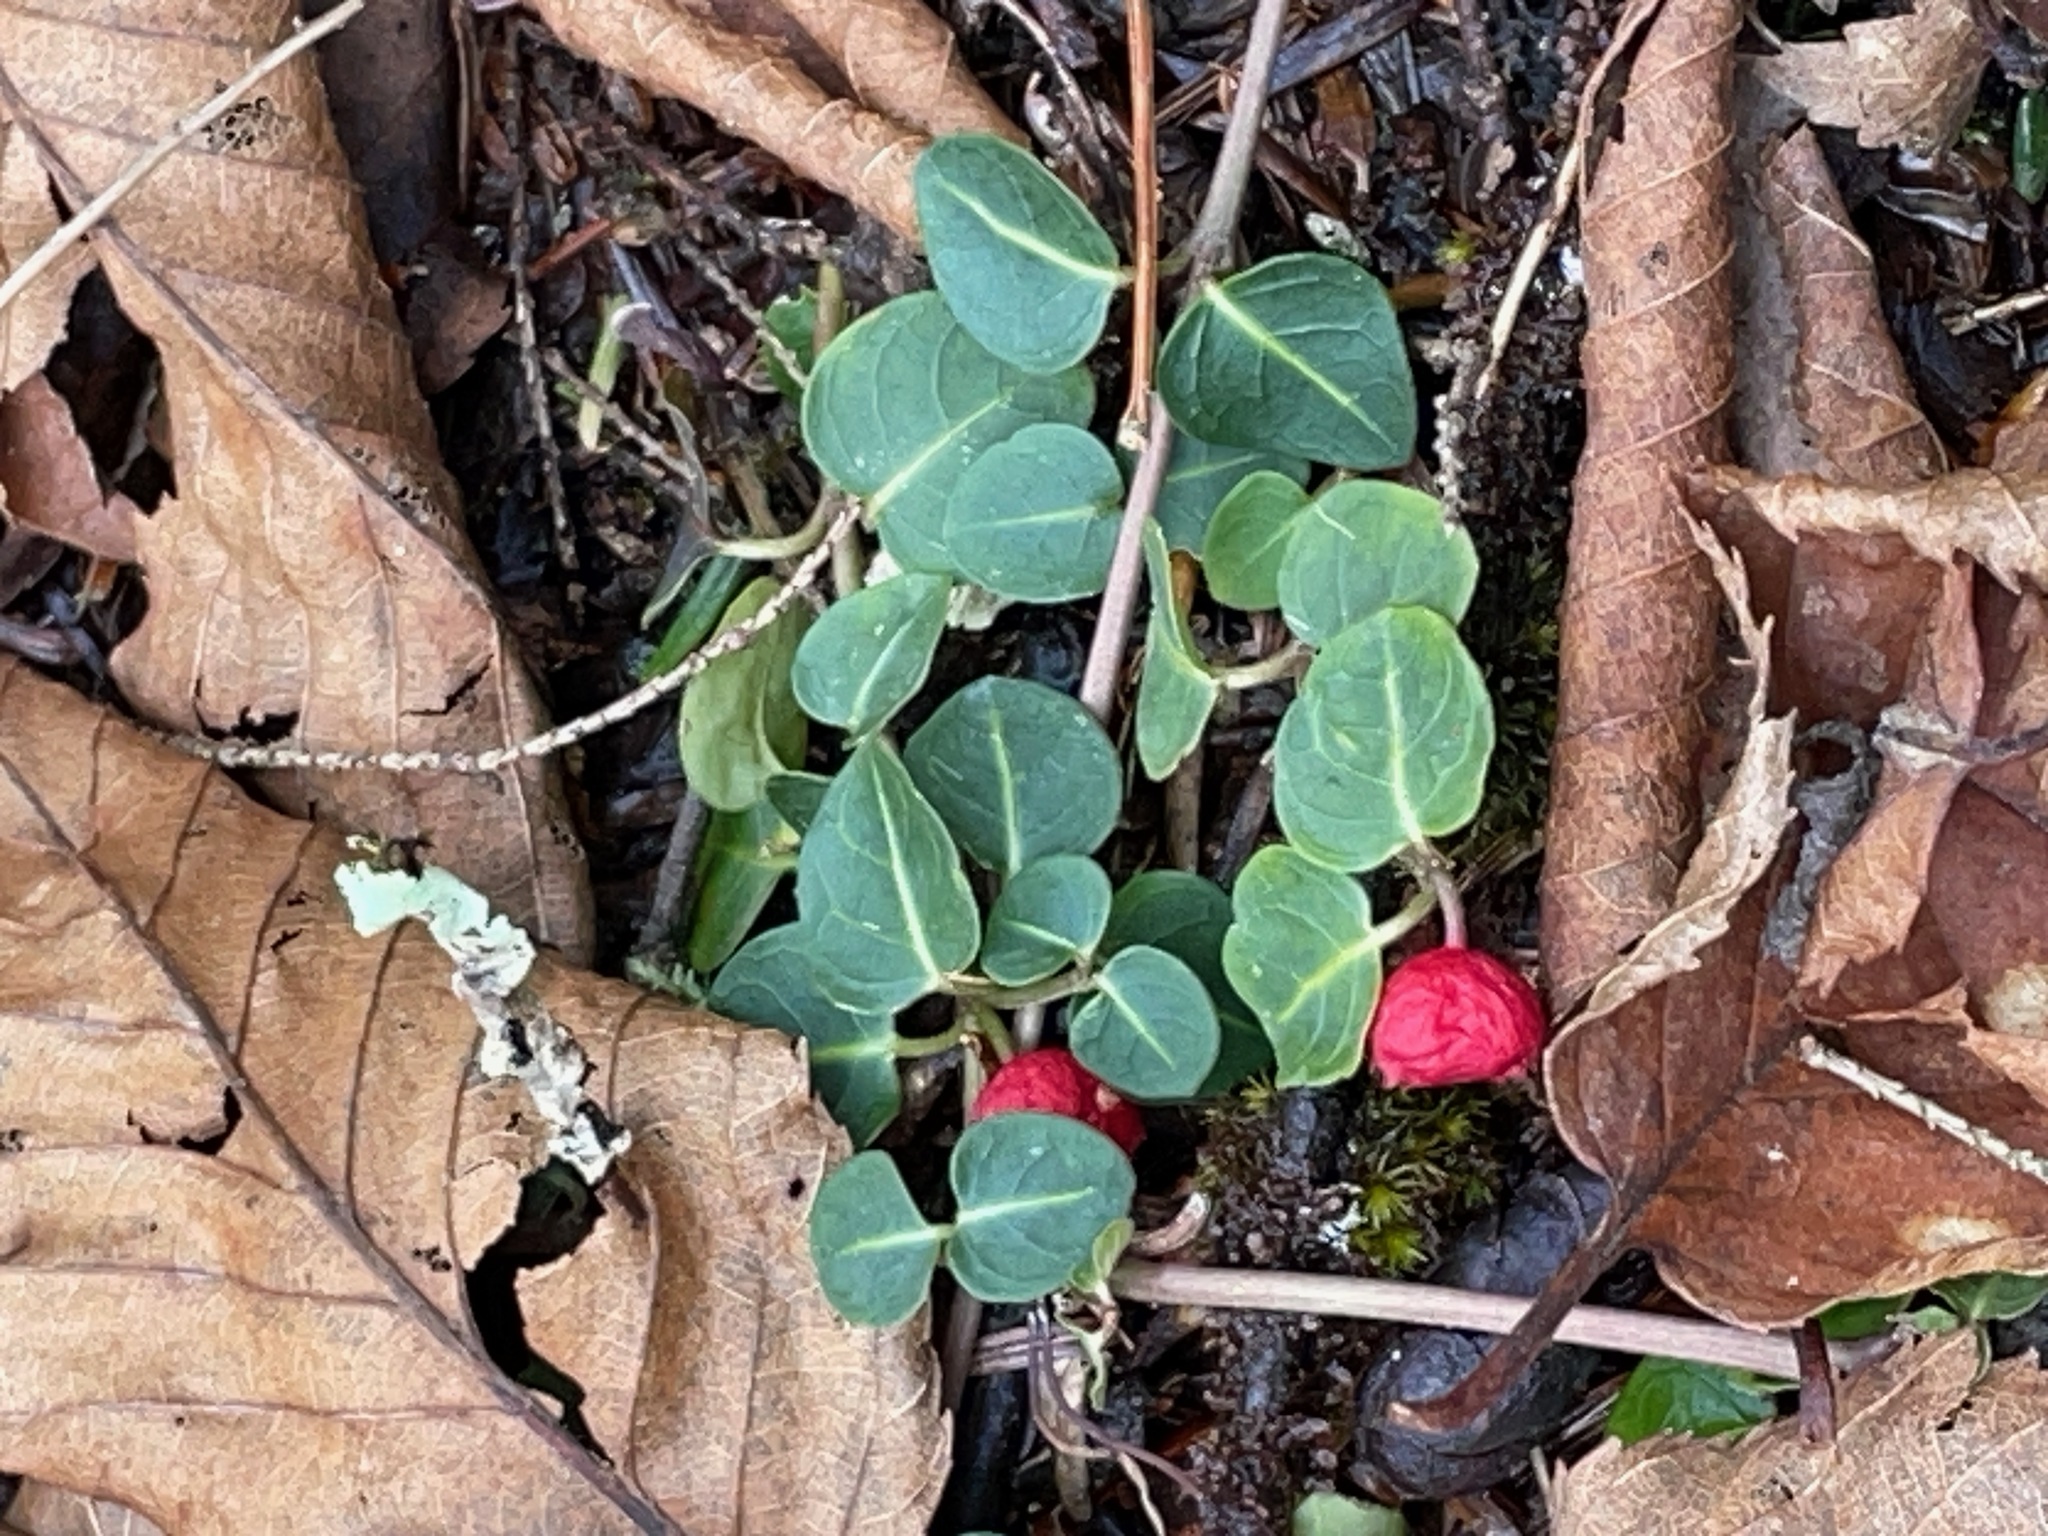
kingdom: Plantae
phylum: Tracheophyta
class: Magnoliopsida
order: Gentianales
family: Rubiaceae
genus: Mitchella
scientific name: Mitchella repens
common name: Partridge-berry
